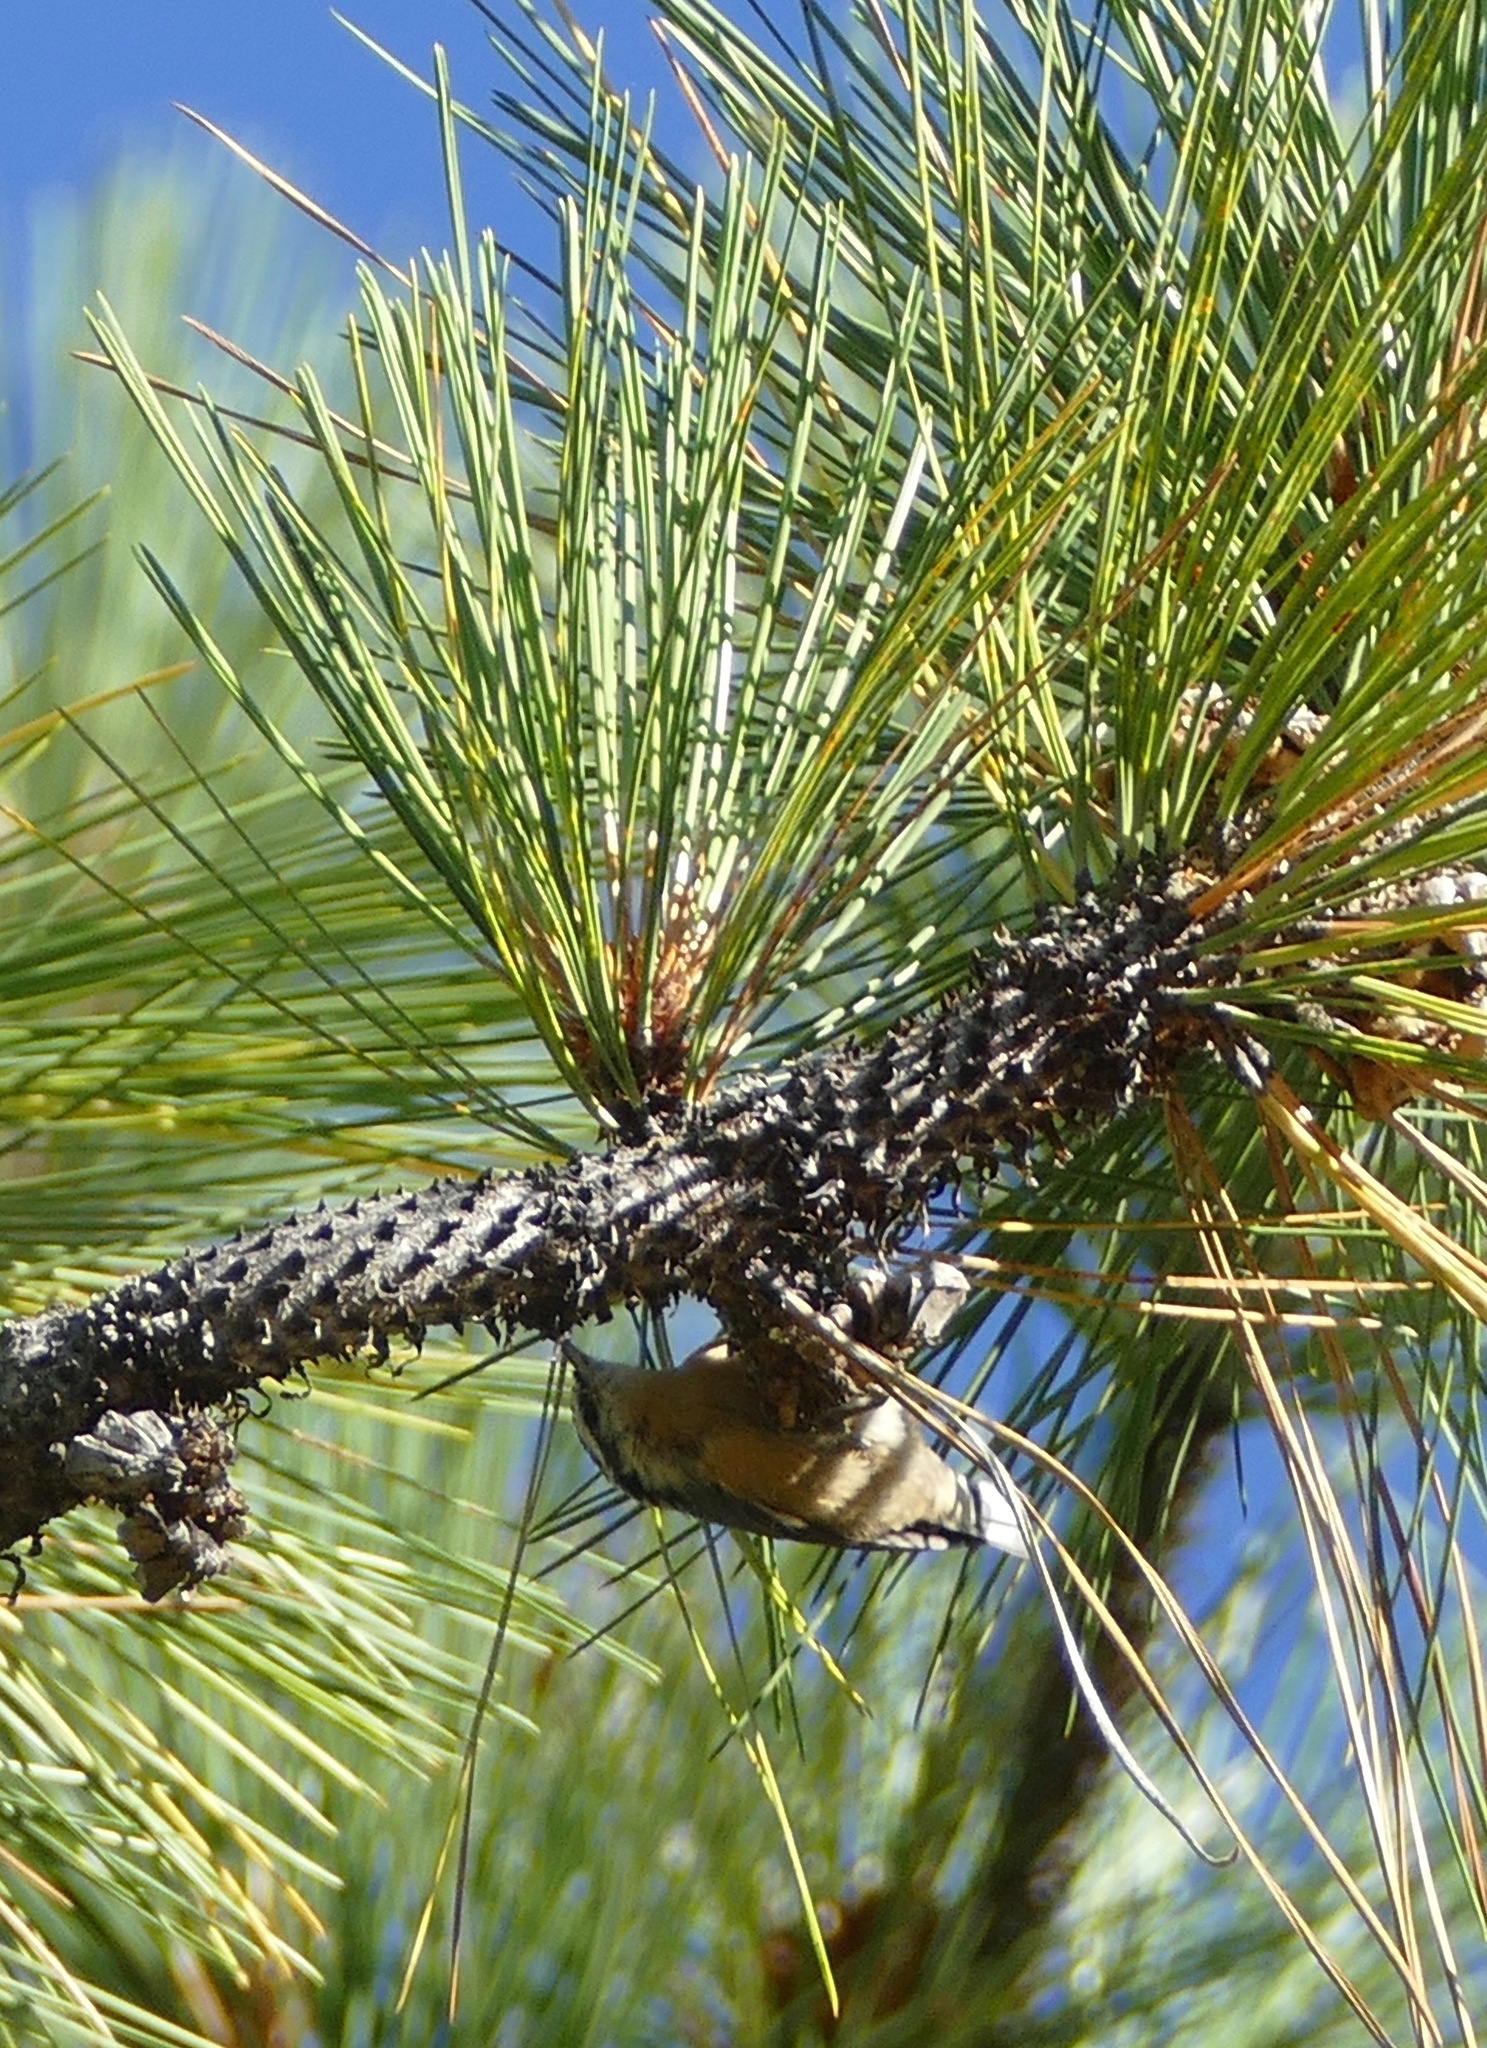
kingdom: Animalia
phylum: Chordata
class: Aves
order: Passeriformes
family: Sittidae
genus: Sitta
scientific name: Sitta canadensis
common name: Red-breasted nuthatch
